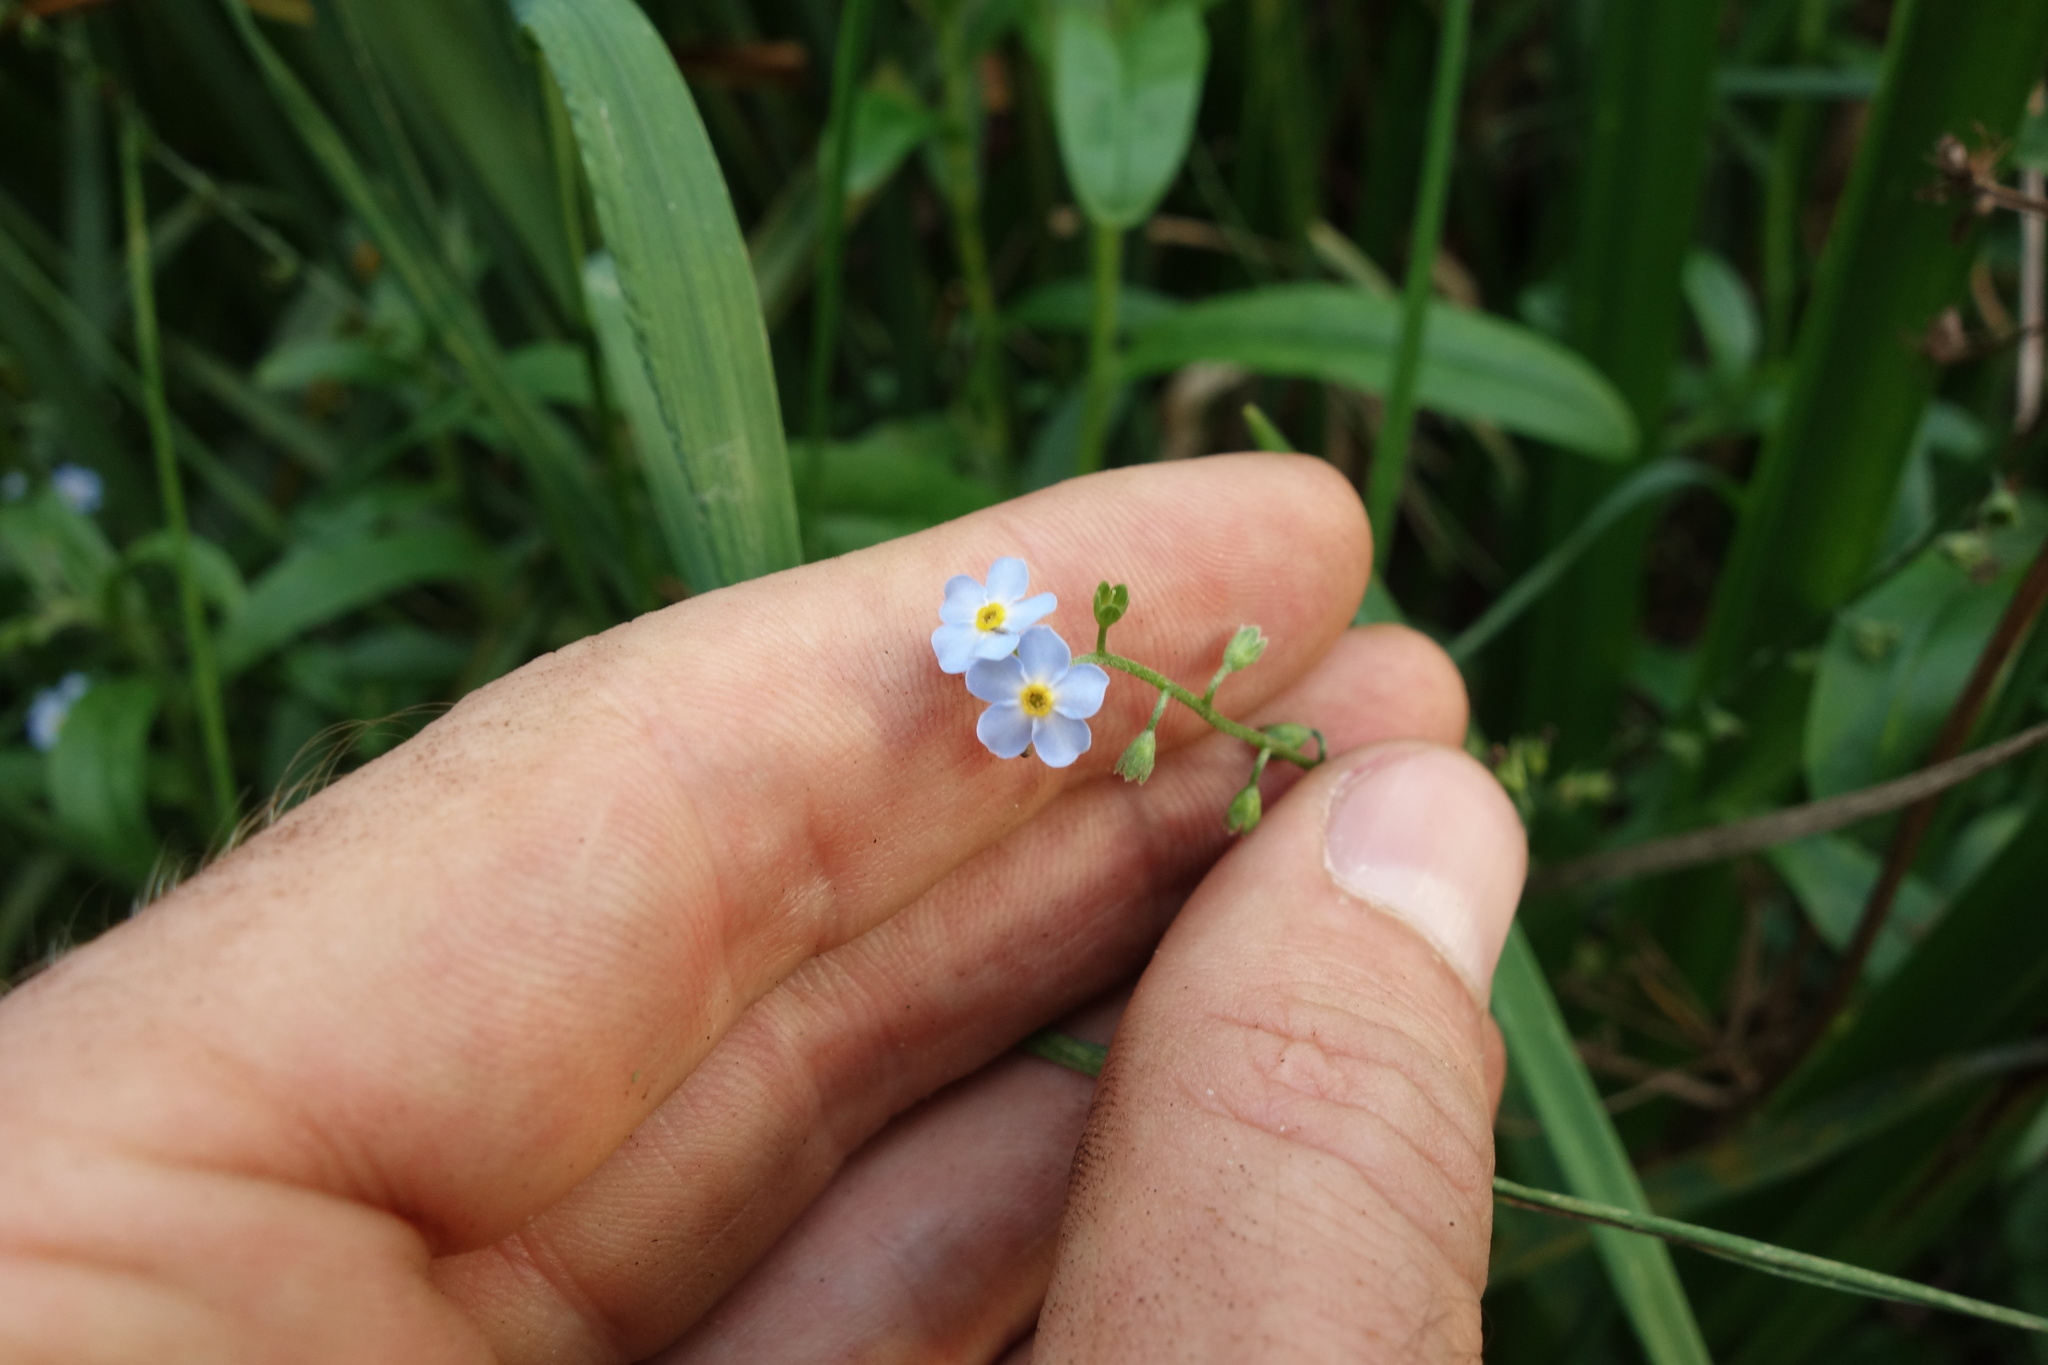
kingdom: Plantae
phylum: Tracheophyta
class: Magnoliopsida
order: Boraginales
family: Boraginaceae
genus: Myosotis
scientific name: Myosotis scorpioides
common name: Water forget-me-not
